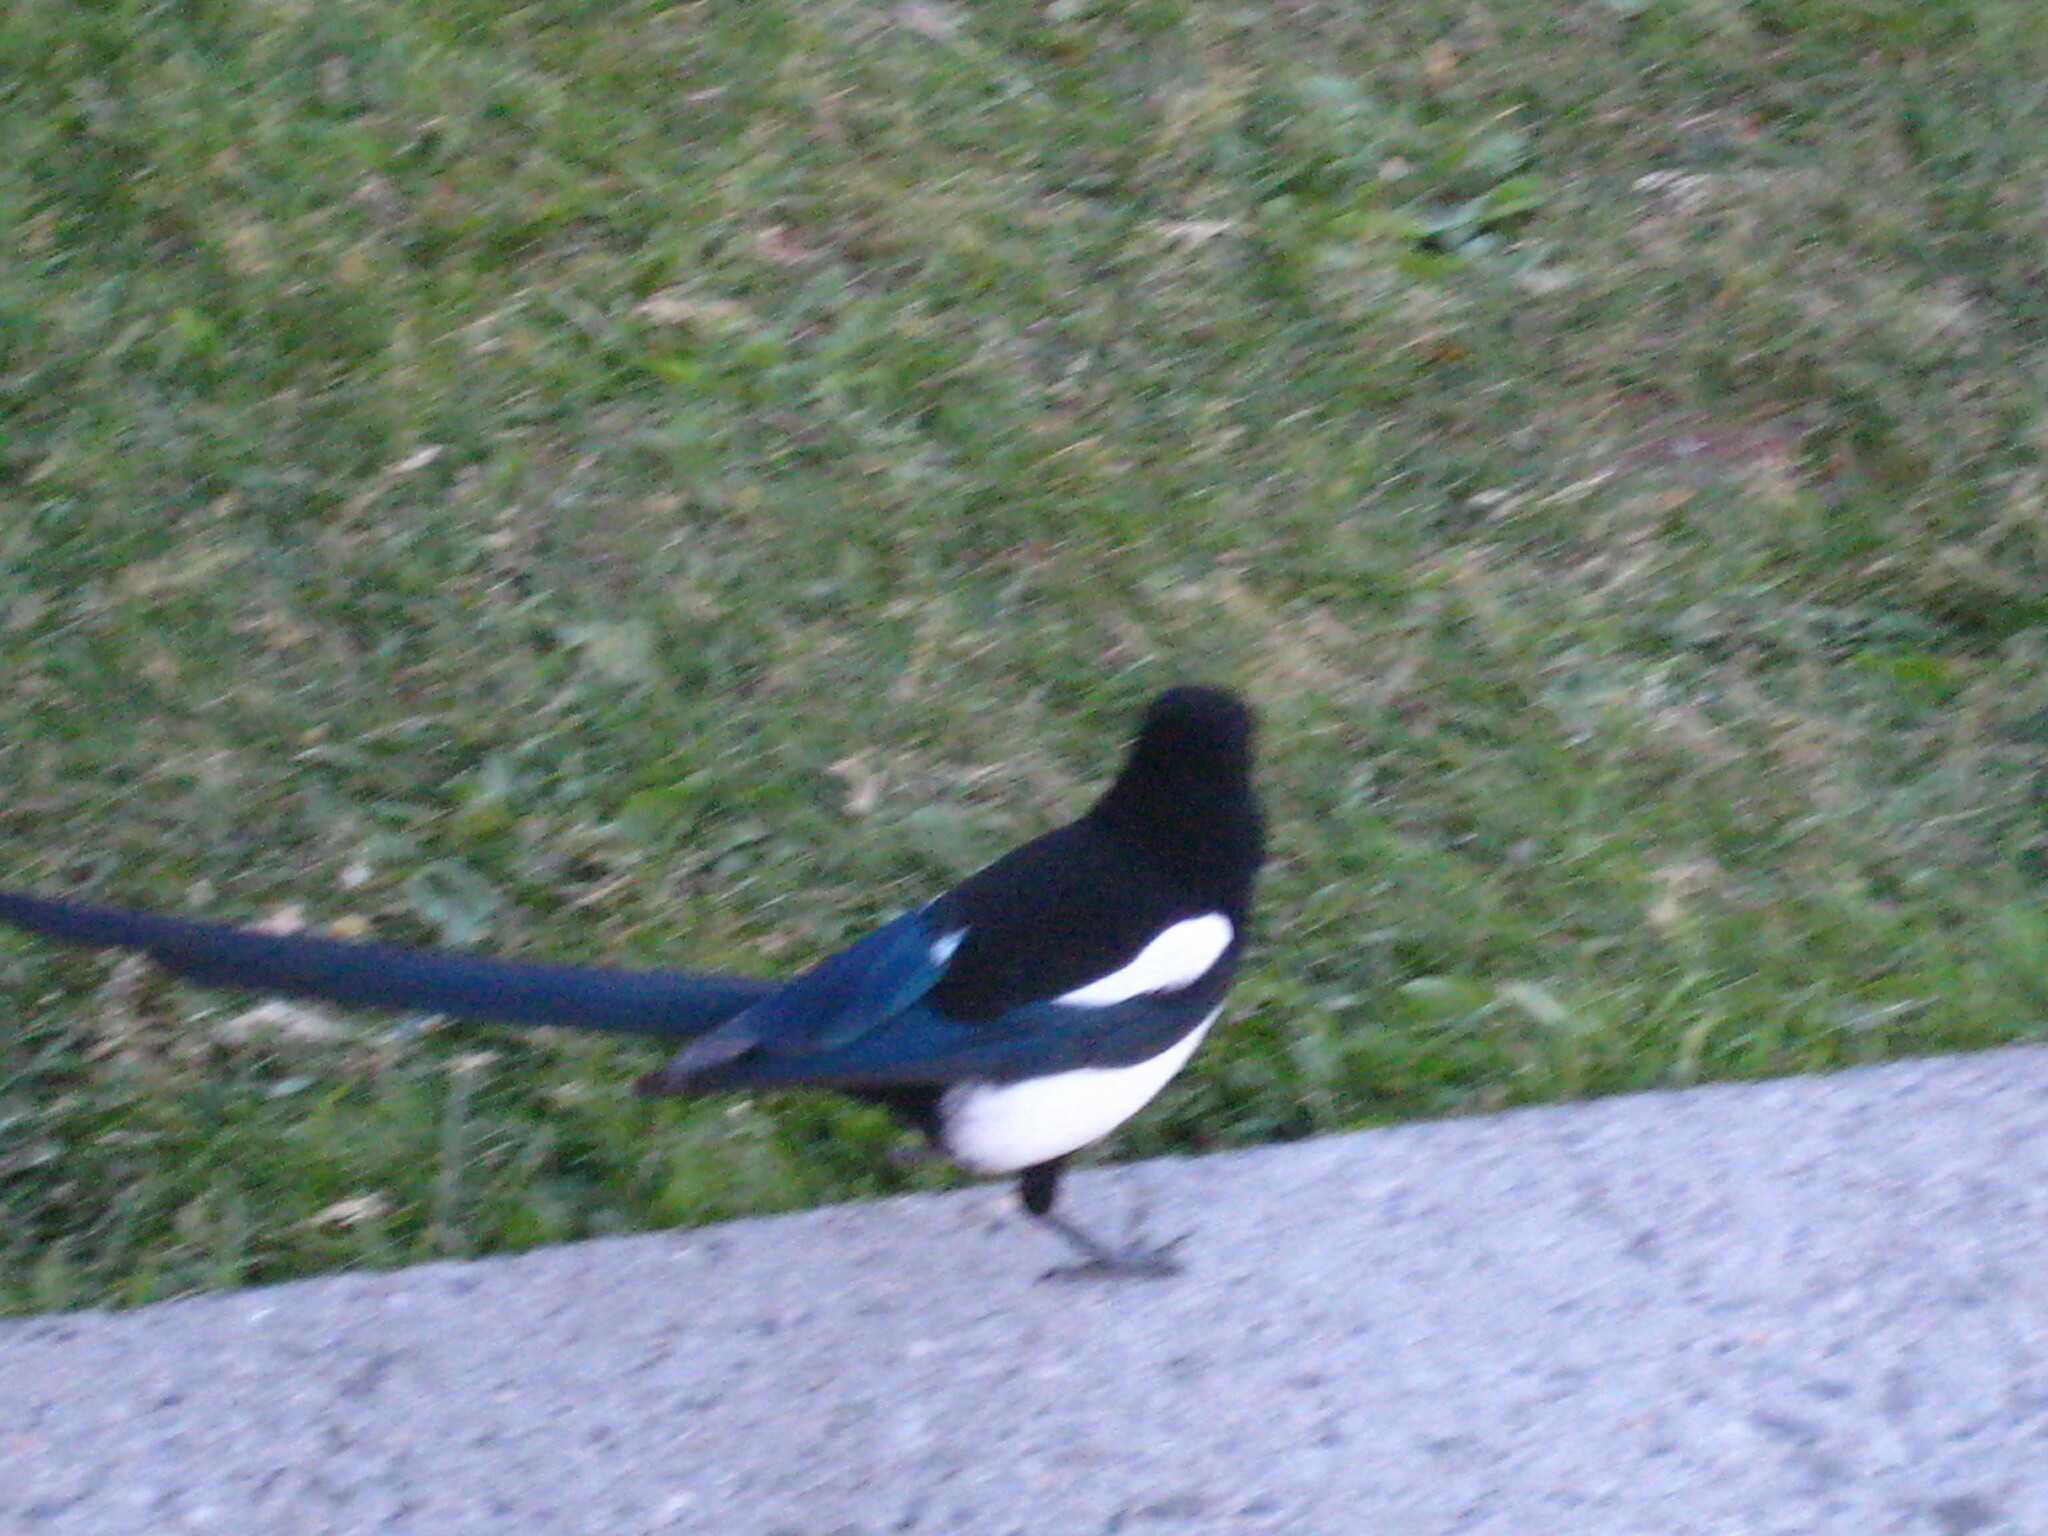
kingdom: Animalia
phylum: Chordata
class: Aves
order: Passeriformes
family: Corvidae
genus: Pica
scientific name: Pica hudsonia
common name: Black-billed magpie
